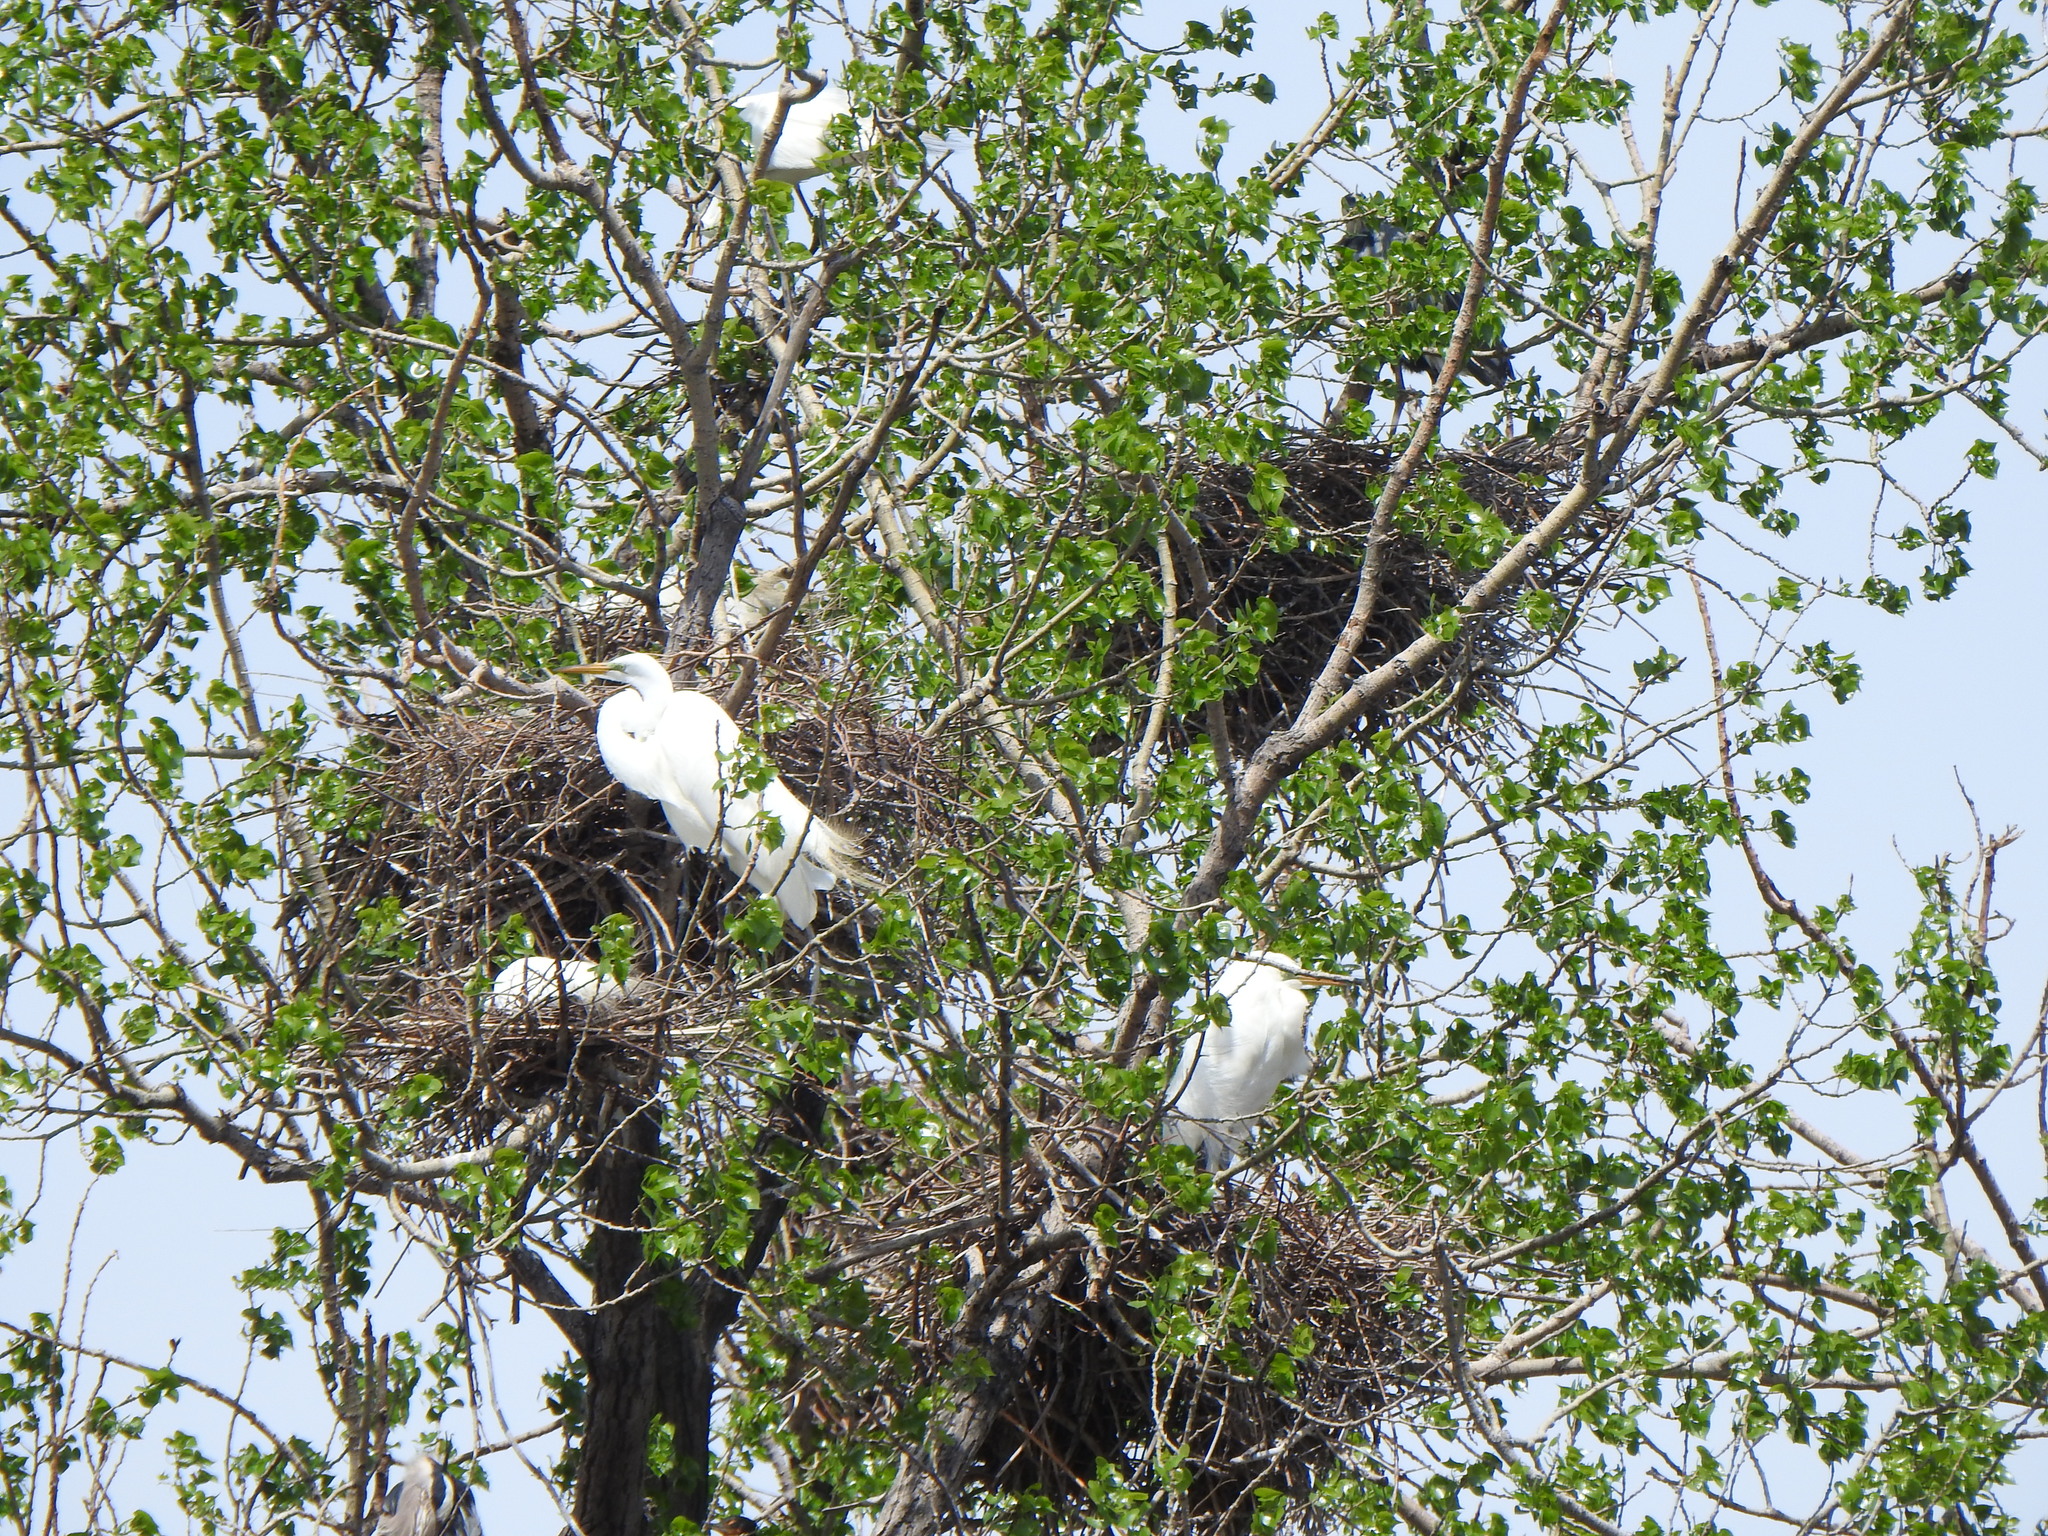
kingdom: Animalia
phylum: Chordata
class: Aves
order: Pelecaniformes
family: Ardeidae
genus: Ardea
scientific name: Ardea alba
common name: Great egret
